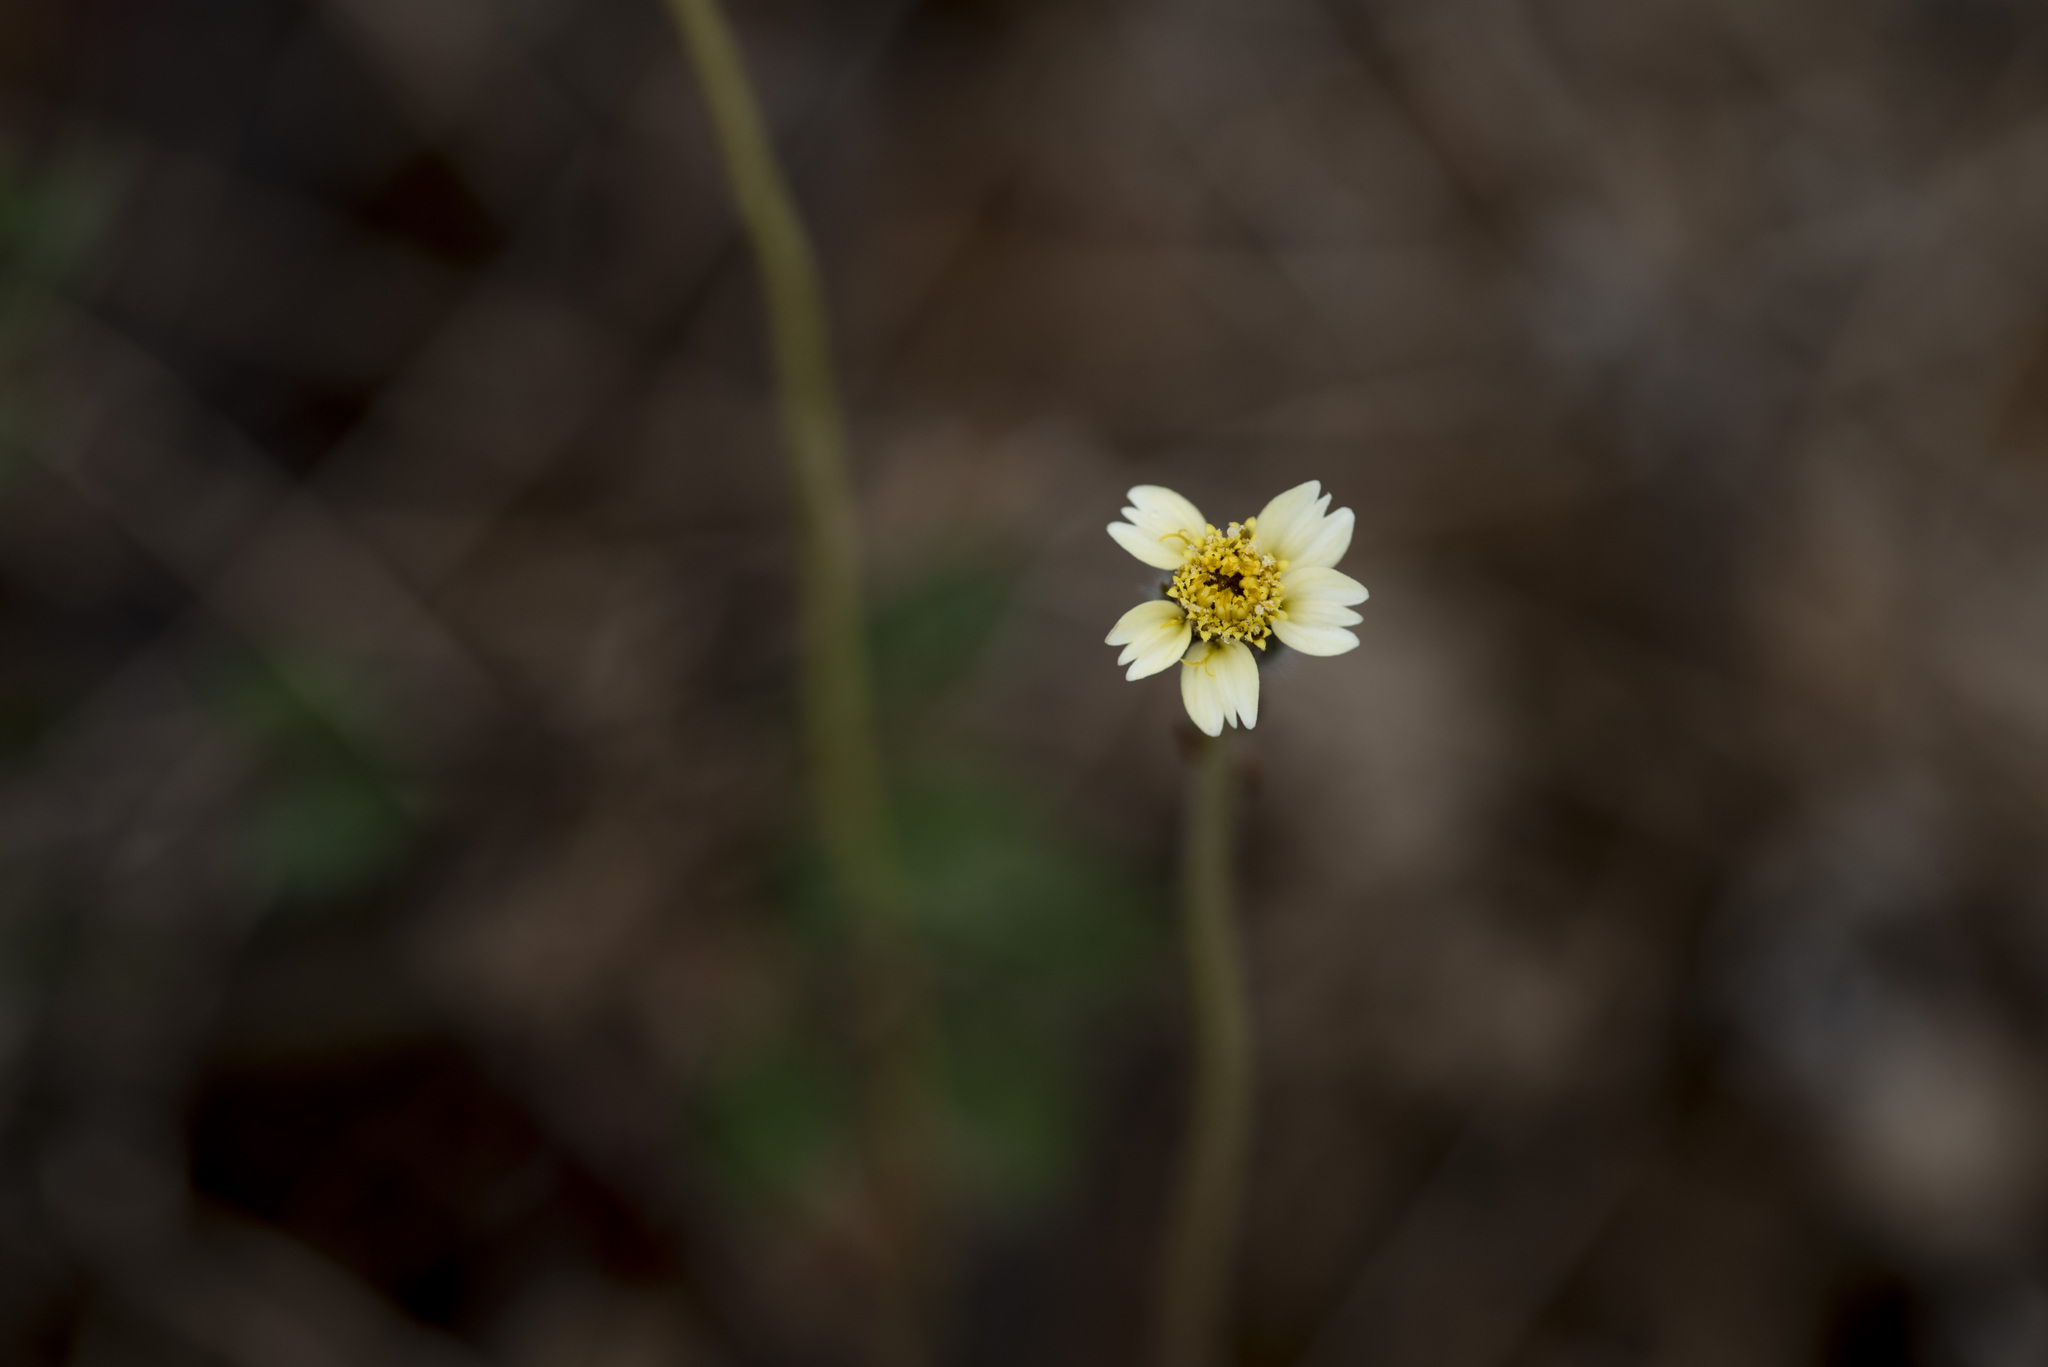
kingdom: Plantae
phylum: Tracheophyta
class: Magnoliopsida
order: Asterales
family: Asteraceae
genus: Tridax
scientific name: Tridax procumbens
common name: Coatbuttons
